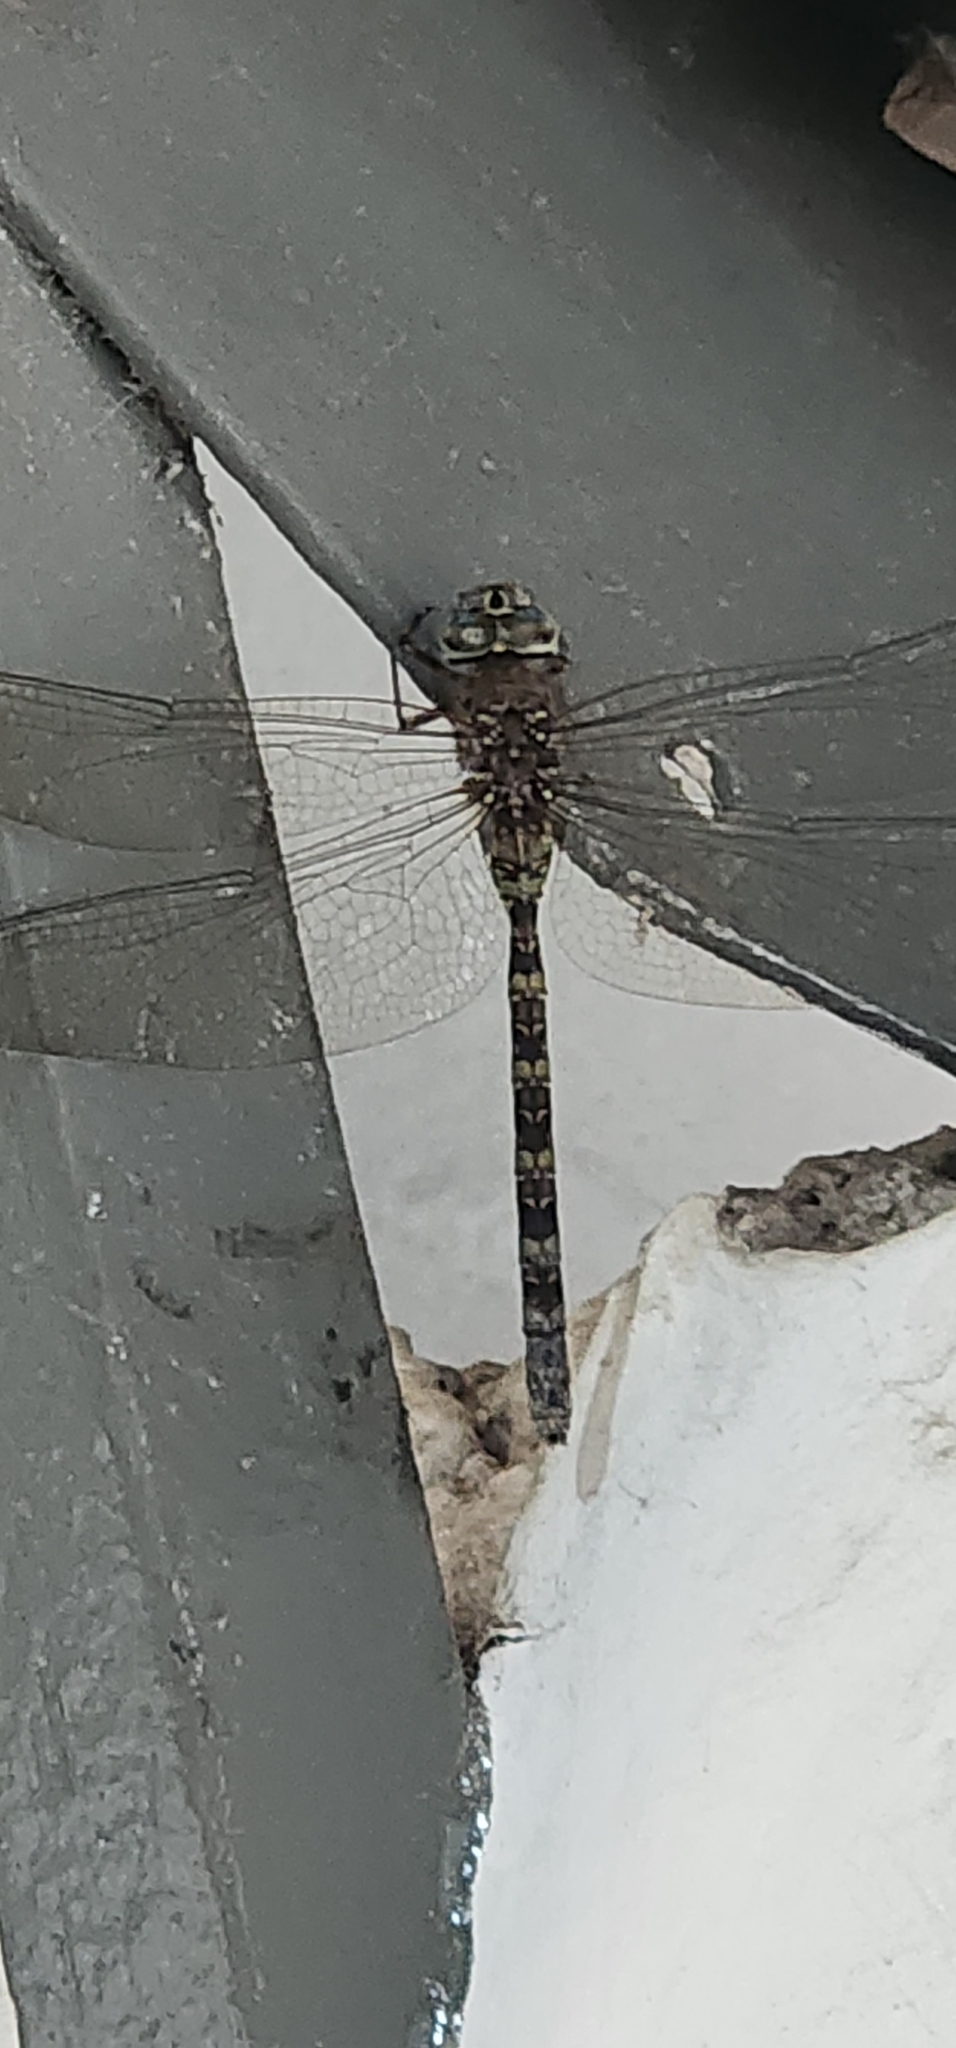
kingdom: Animalia
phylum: Arthropoda
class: Insecta
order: Odonata
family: Aeshnidae
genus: Rhionaeschna
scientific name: Rhionaeschna vigintipunctata
